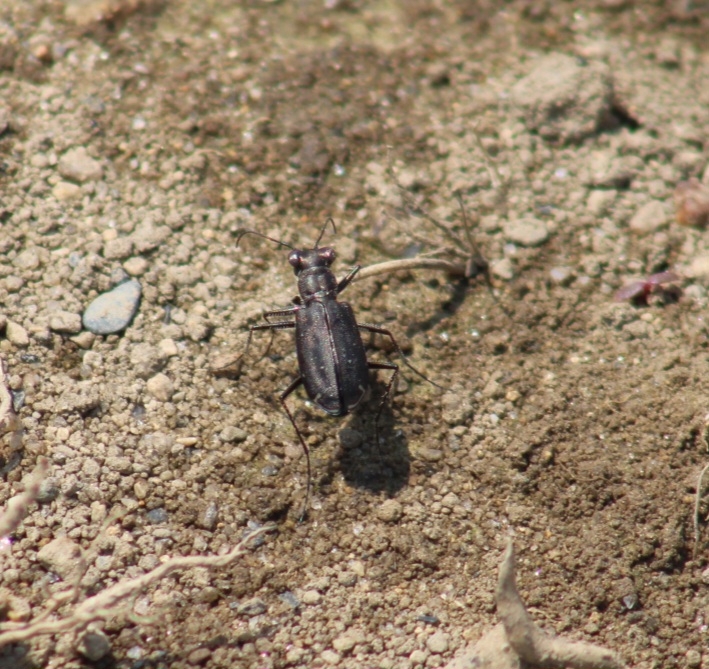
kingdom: Animalia
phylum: Arthropoda
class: Insecta
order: Coleoptera
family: Carabidae
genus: Cicindela
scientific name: Cicindela punctulata
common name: Punctured tiger beetle
